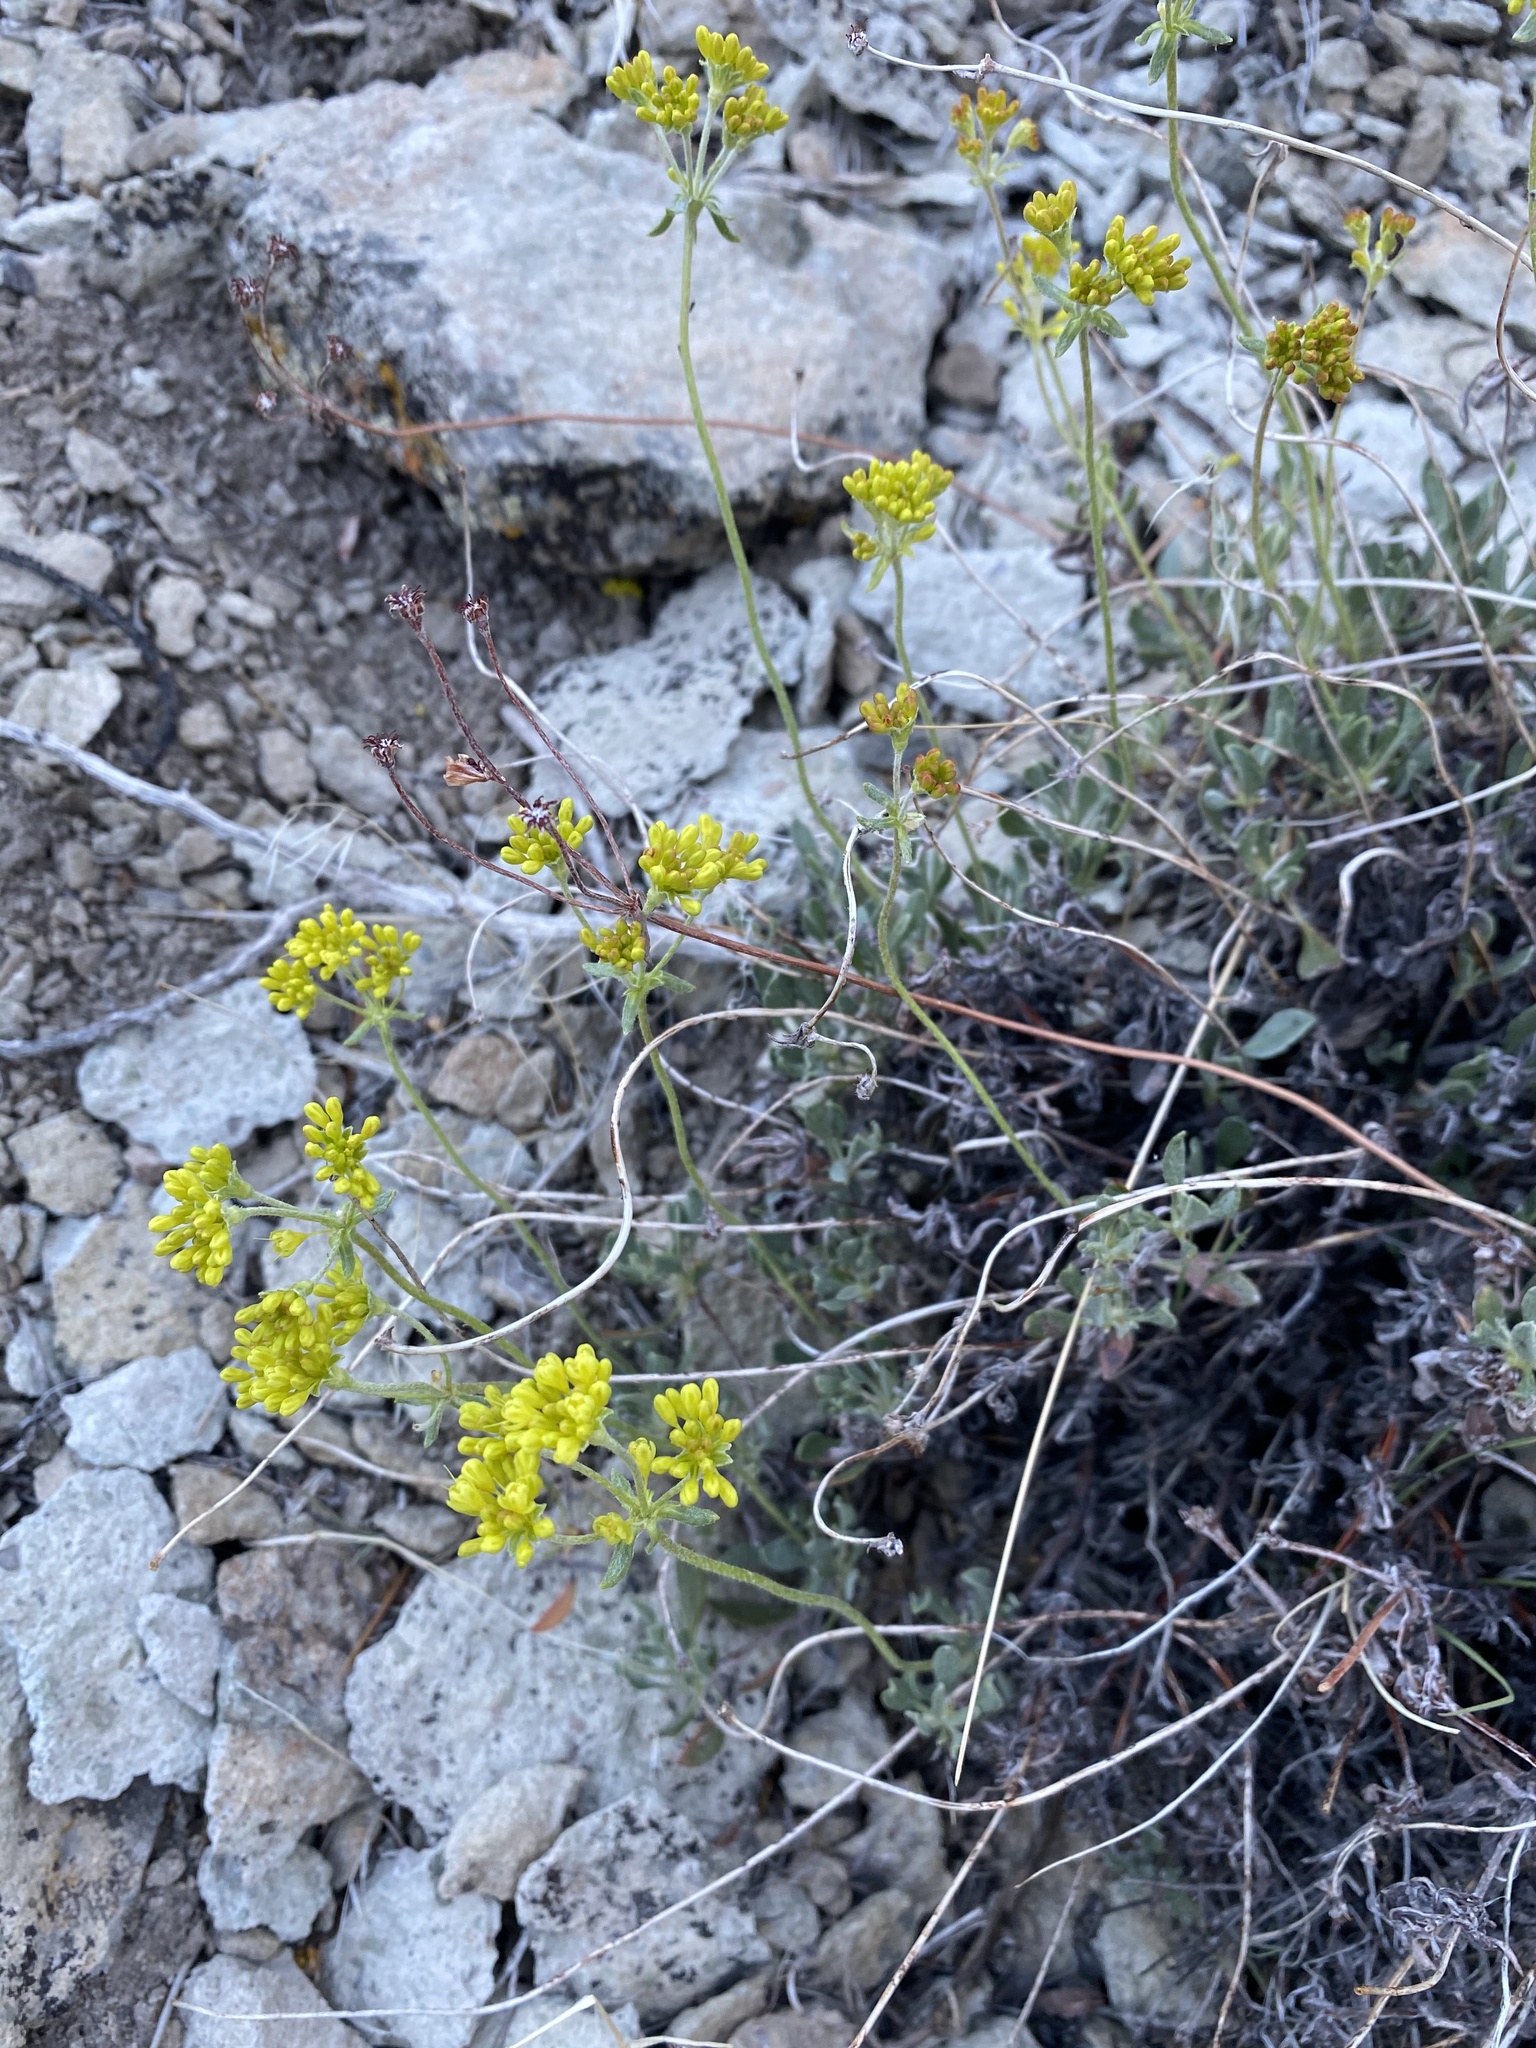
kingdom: Plantae
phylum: Tracheophyta
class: Magnoliopsida
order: Caryophyllales
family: Polygonaceae
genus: Eriogonum
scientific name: Eriogonum umbellatum
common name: Sulfur-buckwheat
